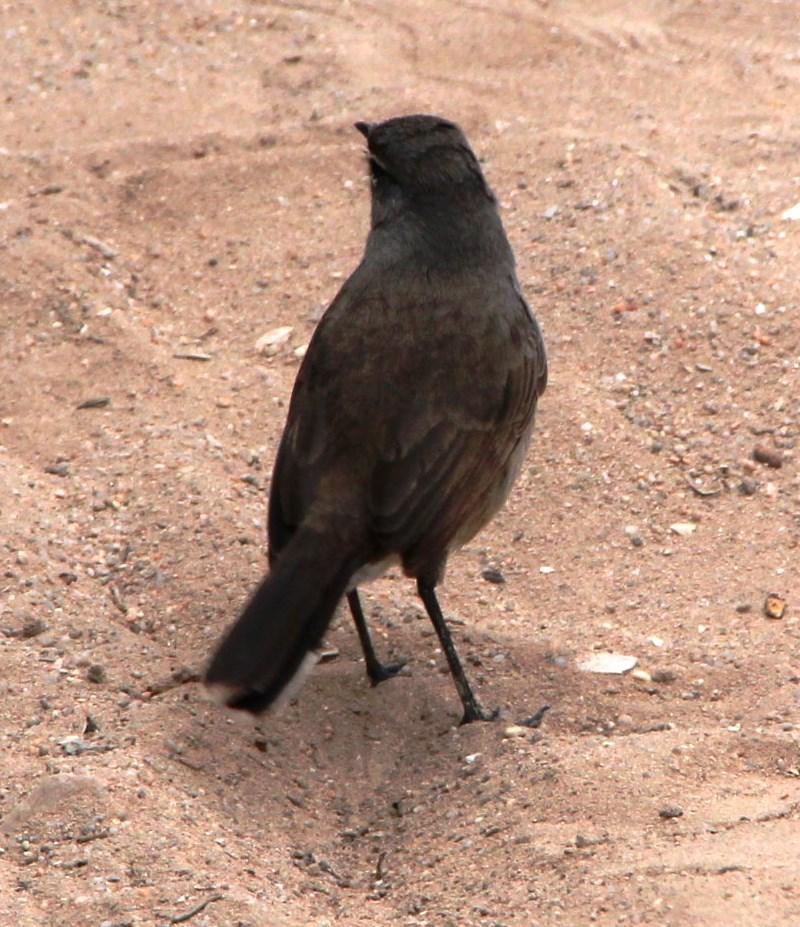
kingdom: Animalia
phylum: Chordata
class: Aves
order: Passeriformes
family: Muscicapidae
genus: Erythropygia
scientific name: Erythropygia coryphoeus
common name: Karoo scrub robin
